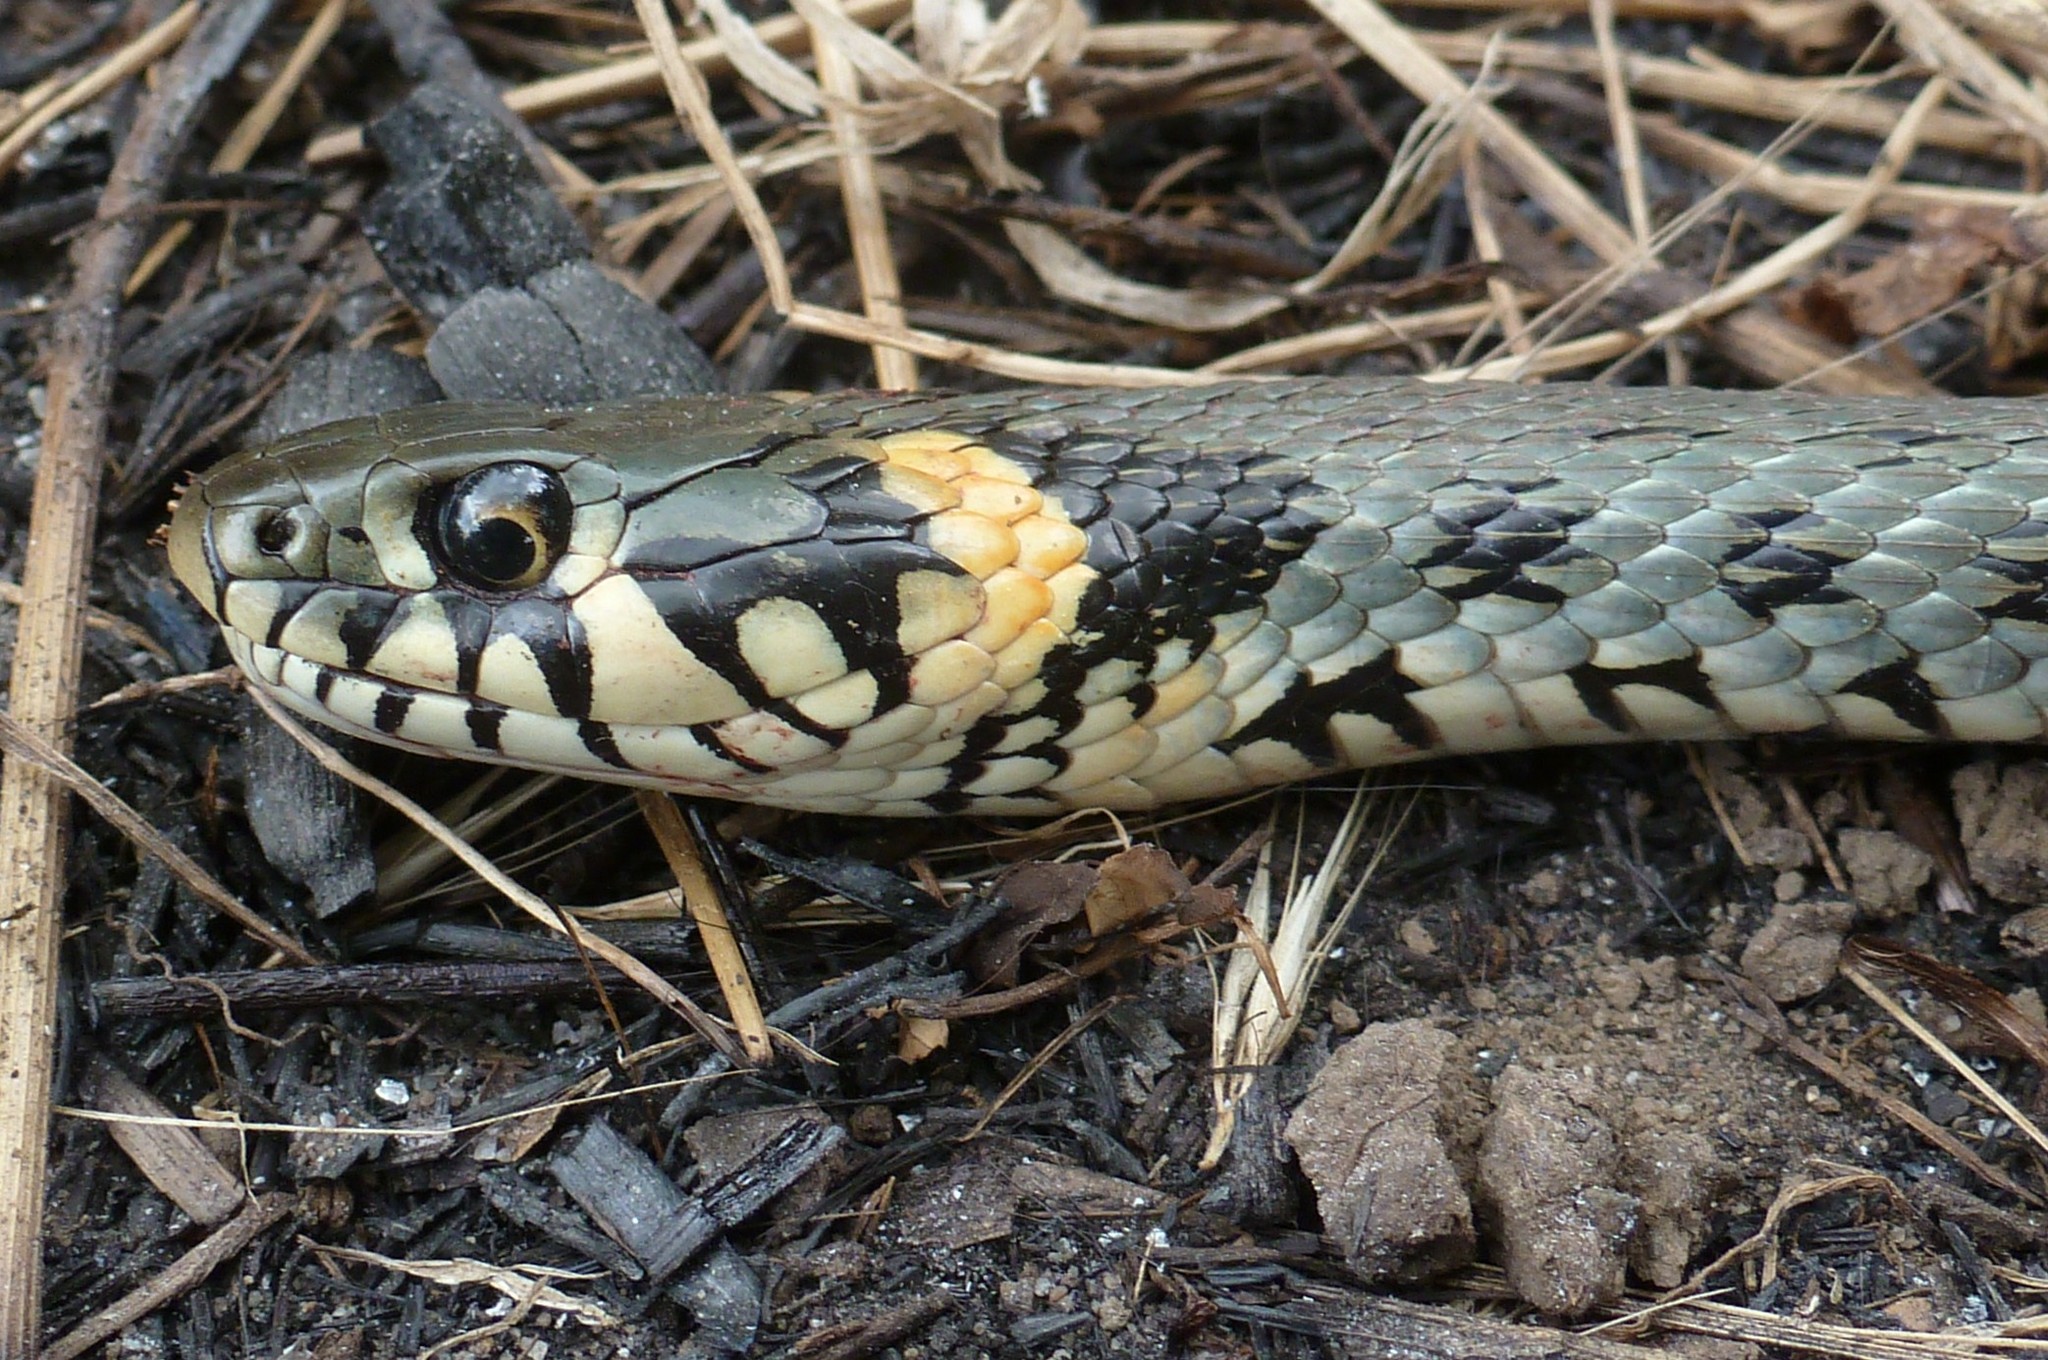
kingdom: Animalia
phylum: Chordata
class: Squamata
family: Colubridae
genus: Natrix
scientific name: Natrix natrix
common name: Grass snake
